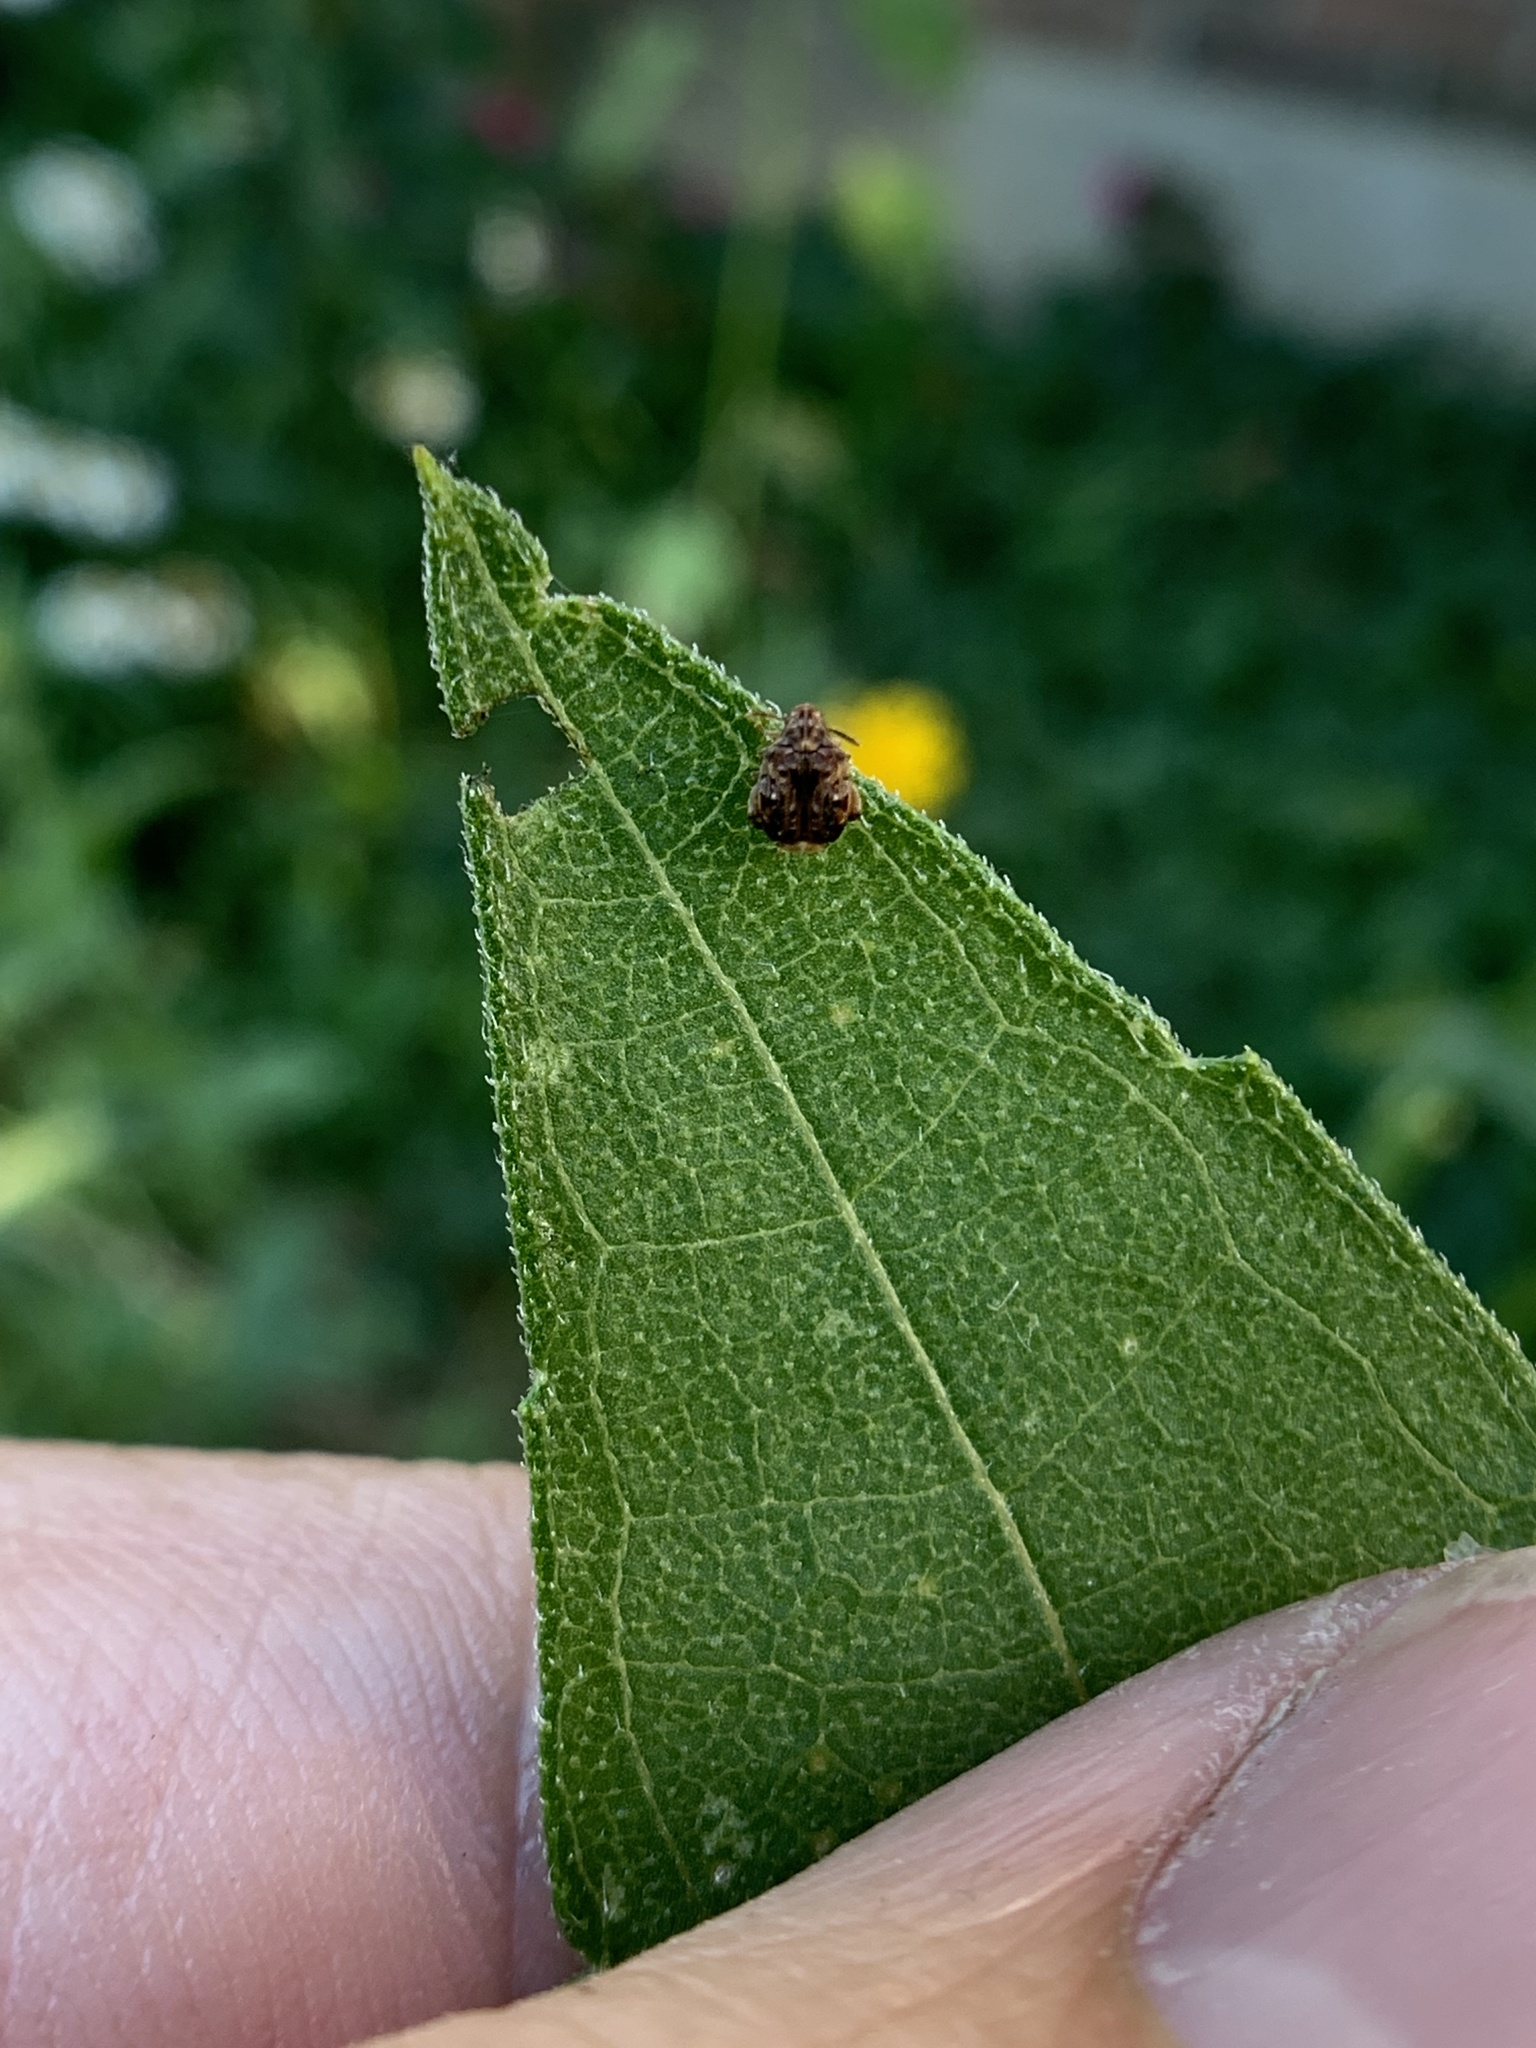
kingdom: Animalia
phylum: Arthropoda
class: Insecta
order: Coleoptera
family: Chrysomelidae
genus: Gibbobruchus
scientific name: Gibbobruchus mimus
